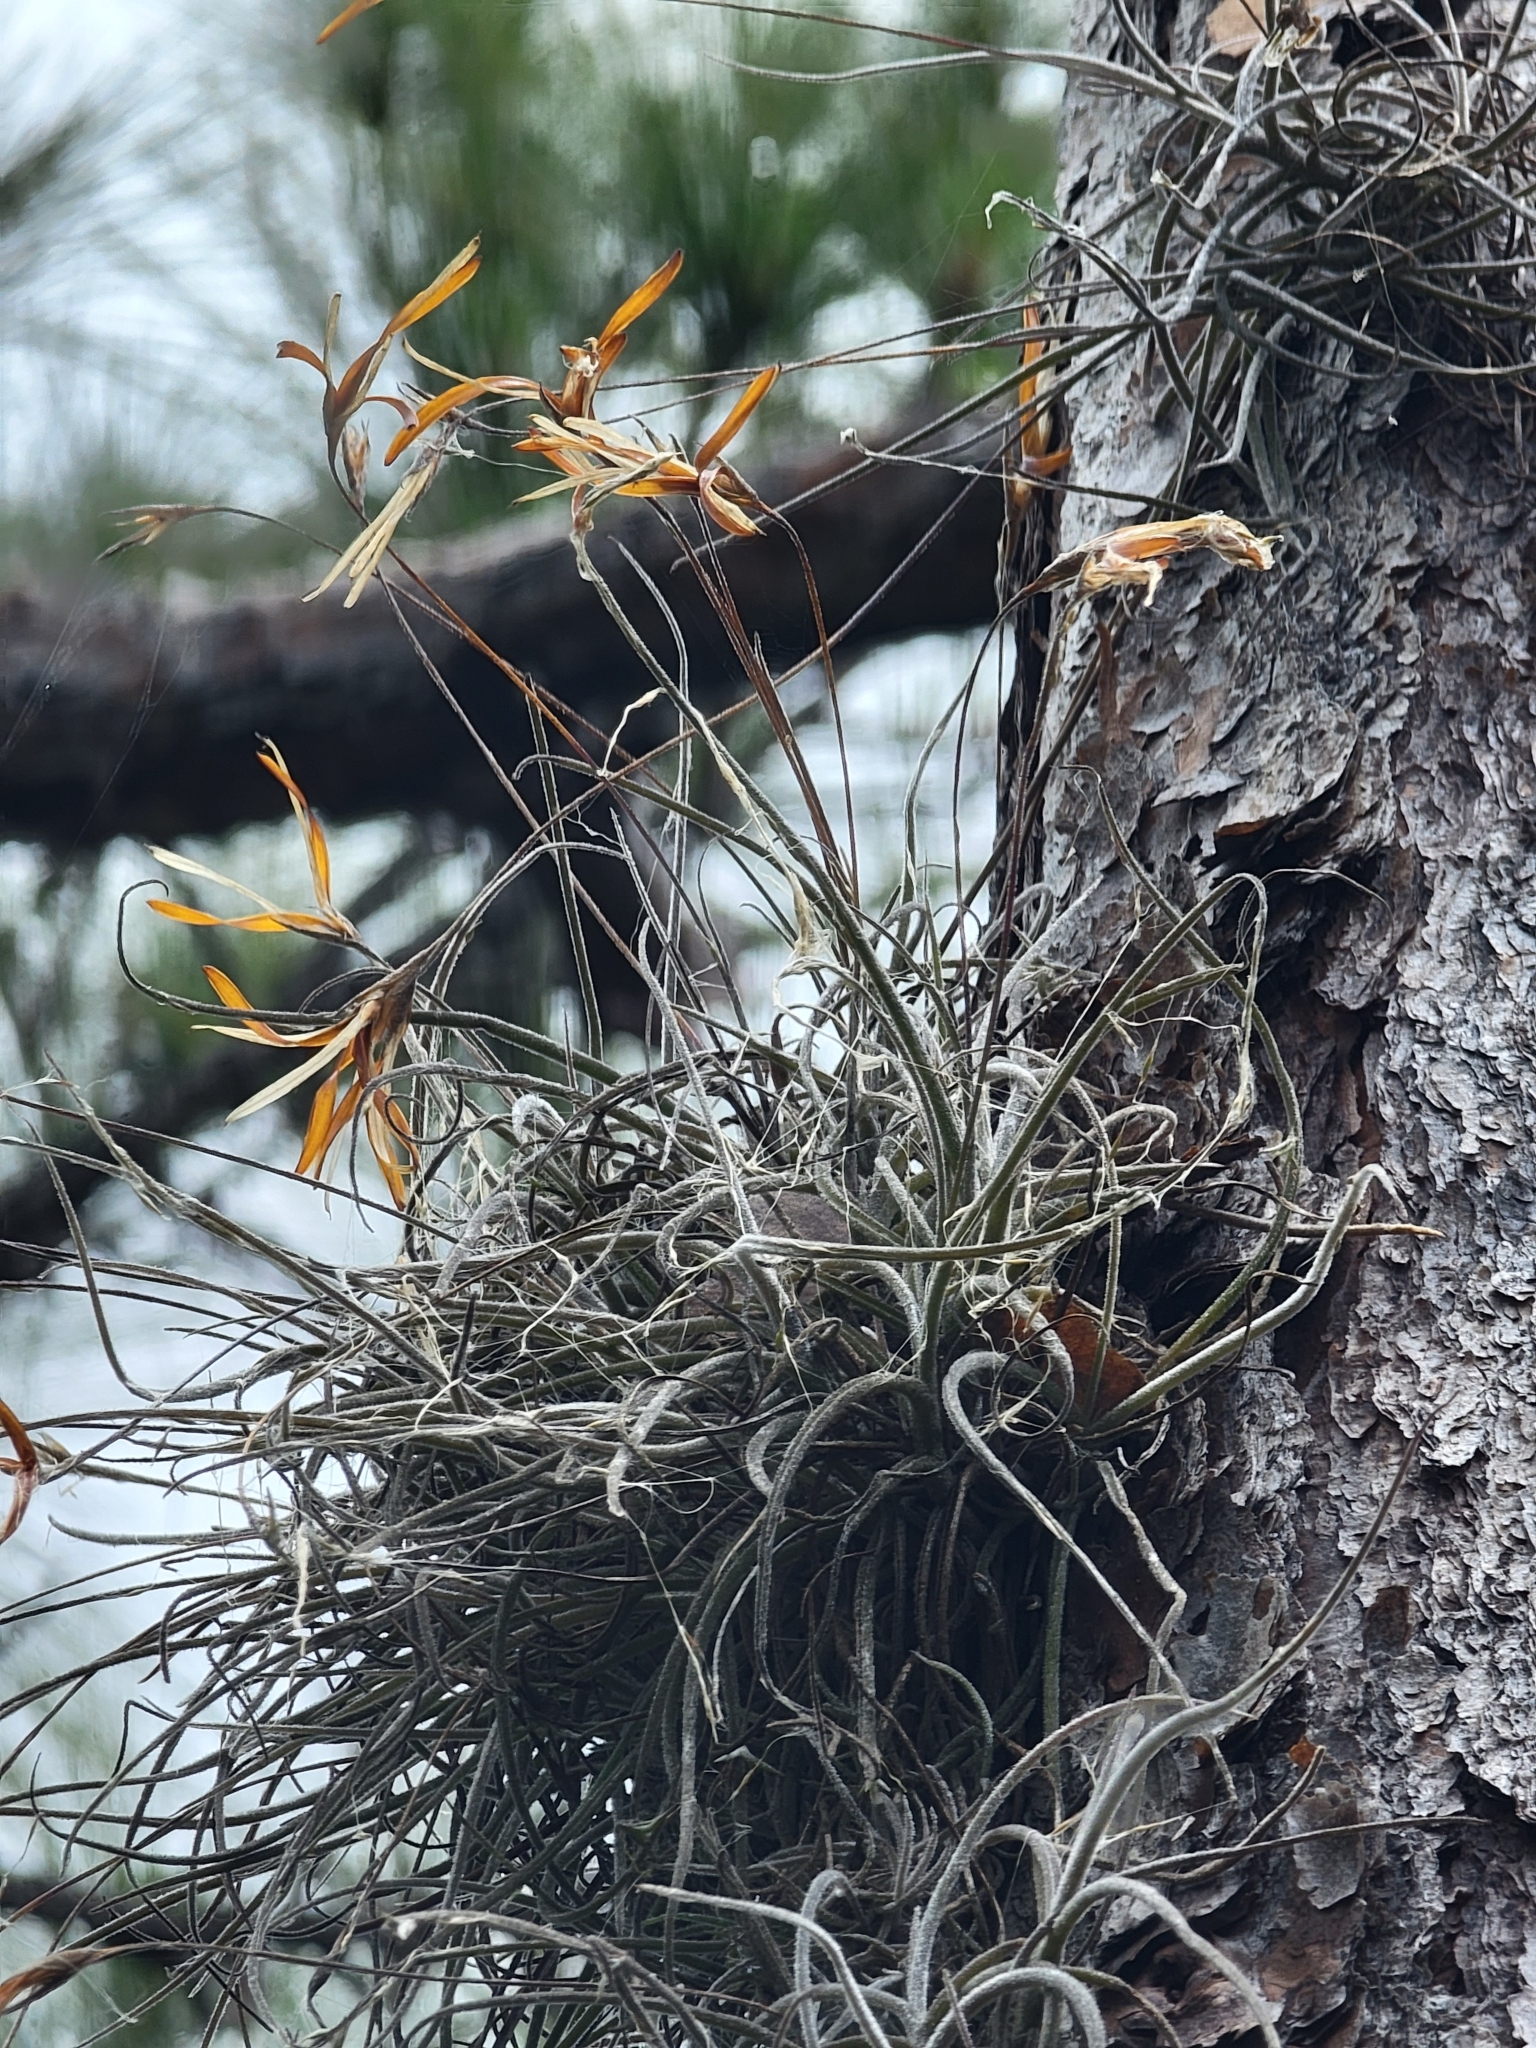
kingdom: Plantae
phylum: Tracheophyta
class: Liliopsida
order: Poales
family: Bromeliaceae
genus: Tillandsia
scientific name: Tillandsia recurvata
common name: Small ballmoss
